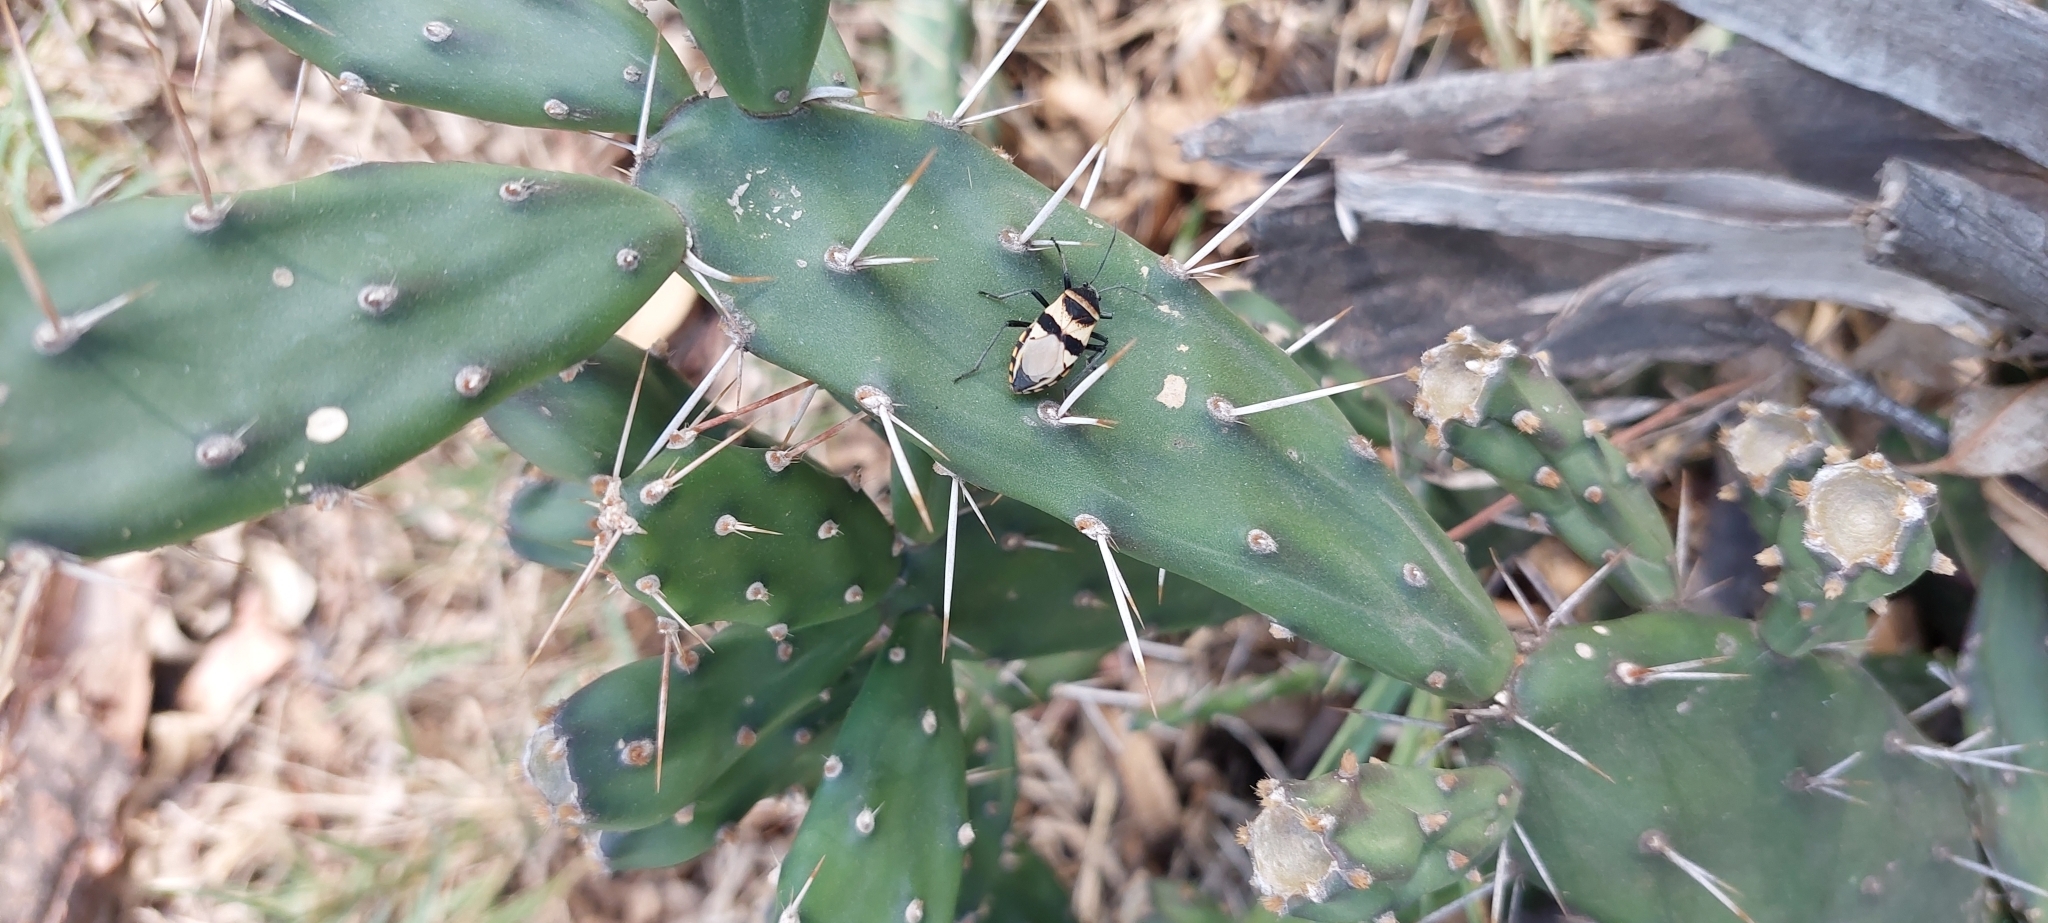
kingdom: Animalia
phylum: Arthropoda
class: Insecta
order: Hemiptera
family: Largidae
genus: Largus
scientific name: Largus fasciatus
